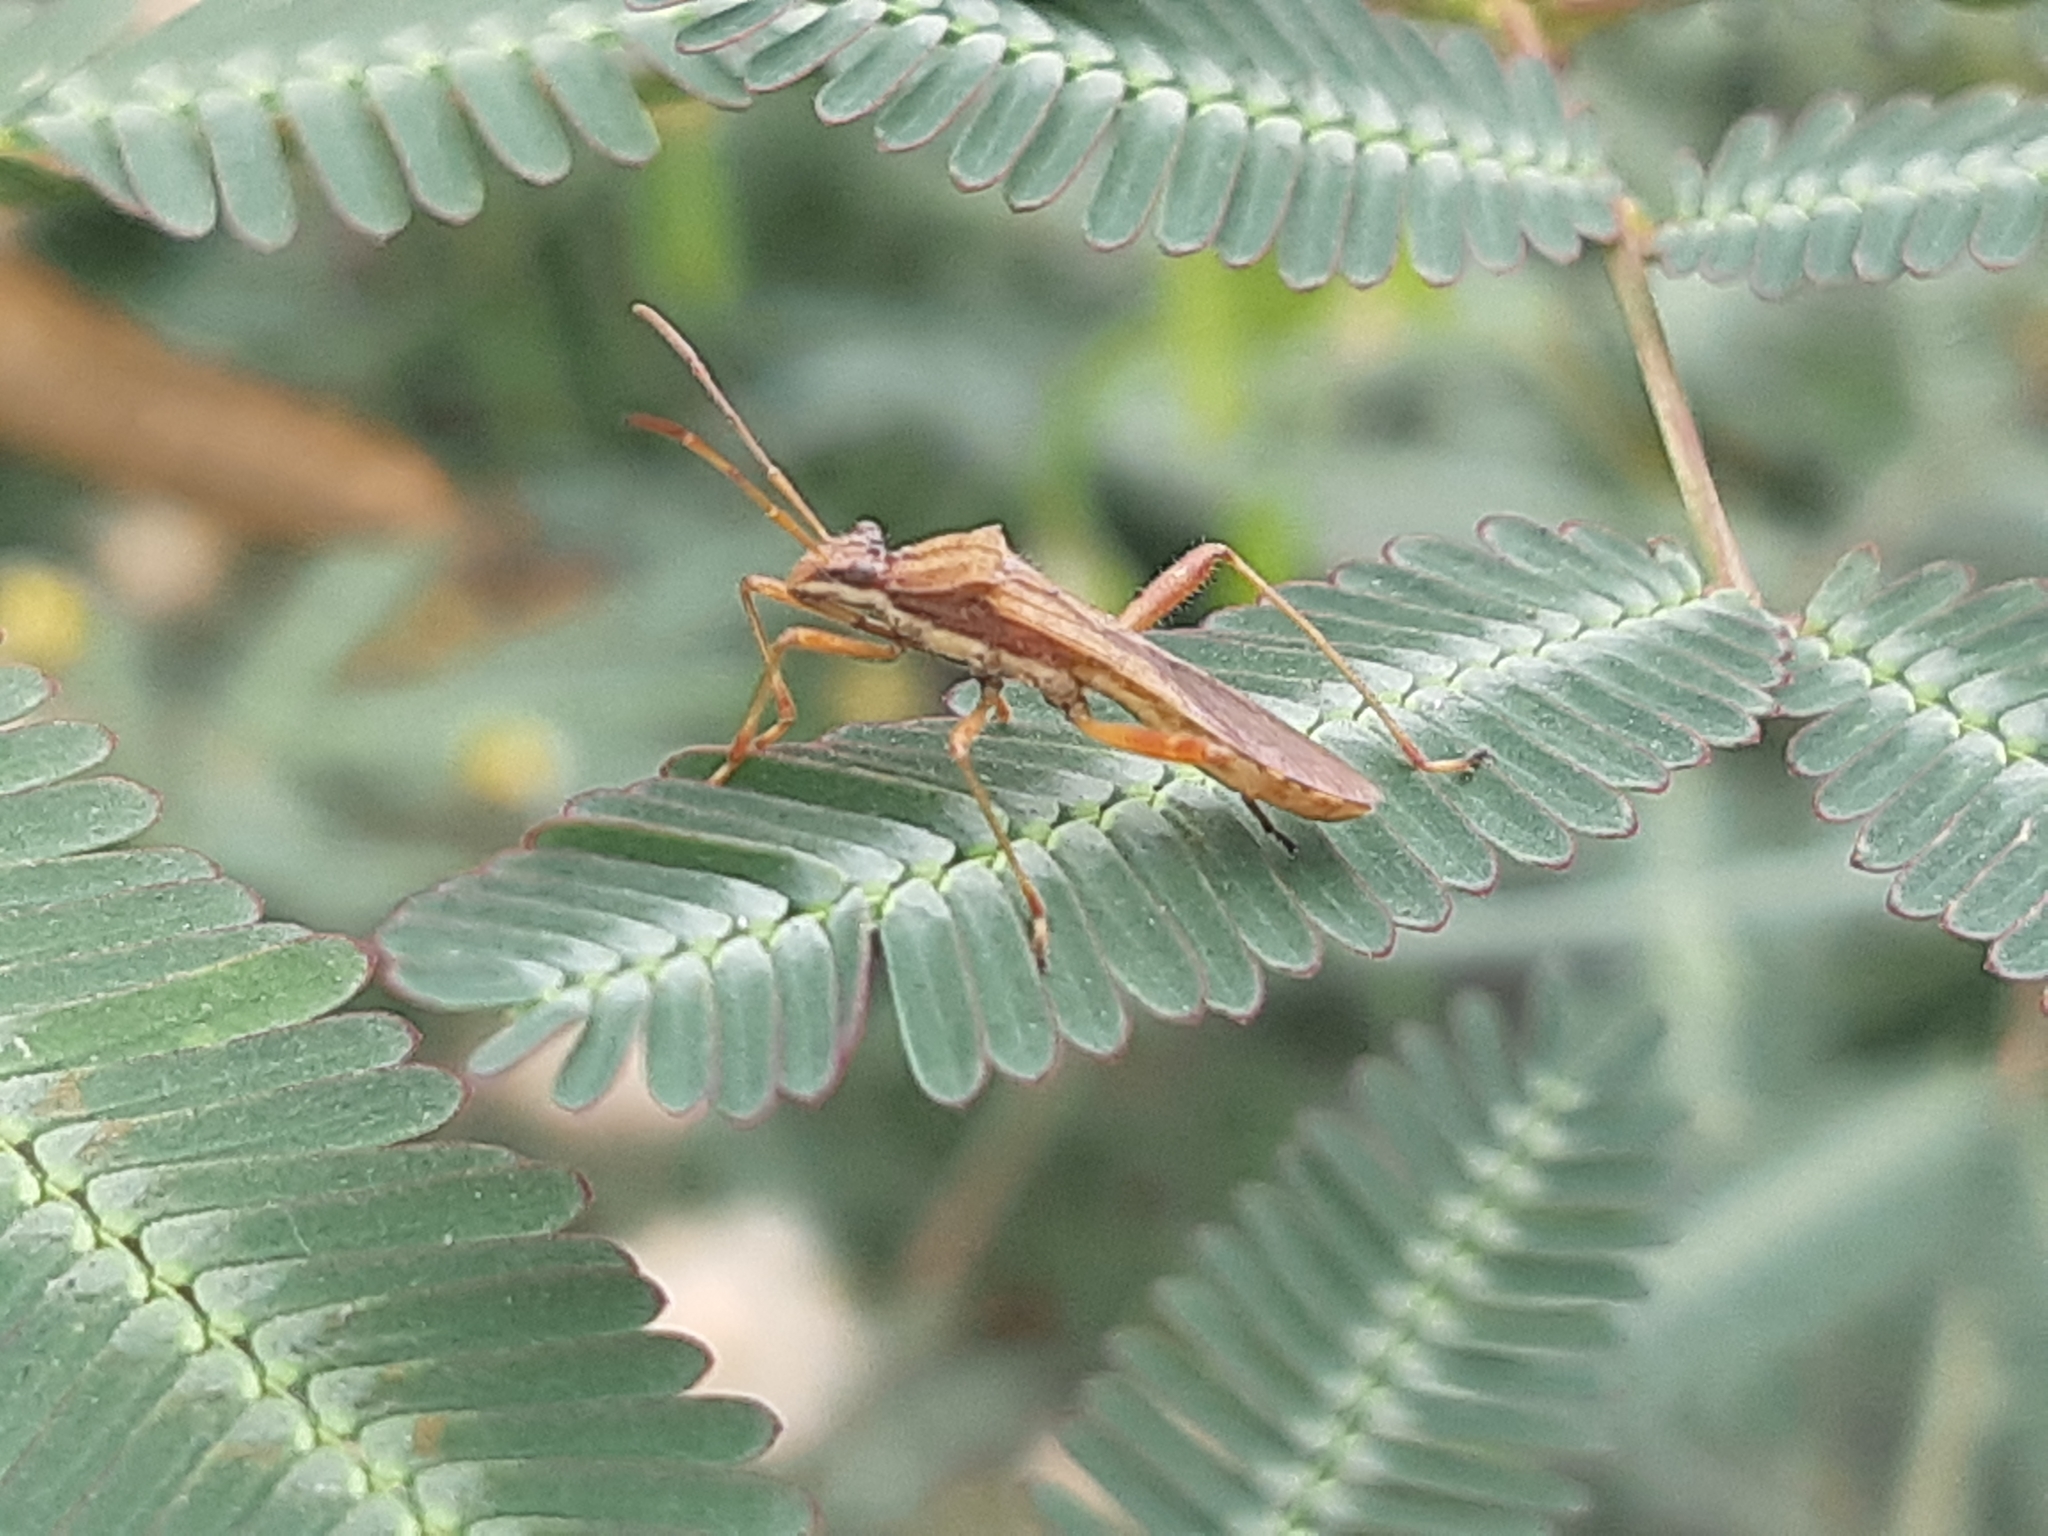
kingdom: Animalia
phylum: Arthropoda
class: Insecta
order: Hemiptera
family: Alydidae
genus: Neomegalotomus
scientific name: Neomegalotomus parvus
